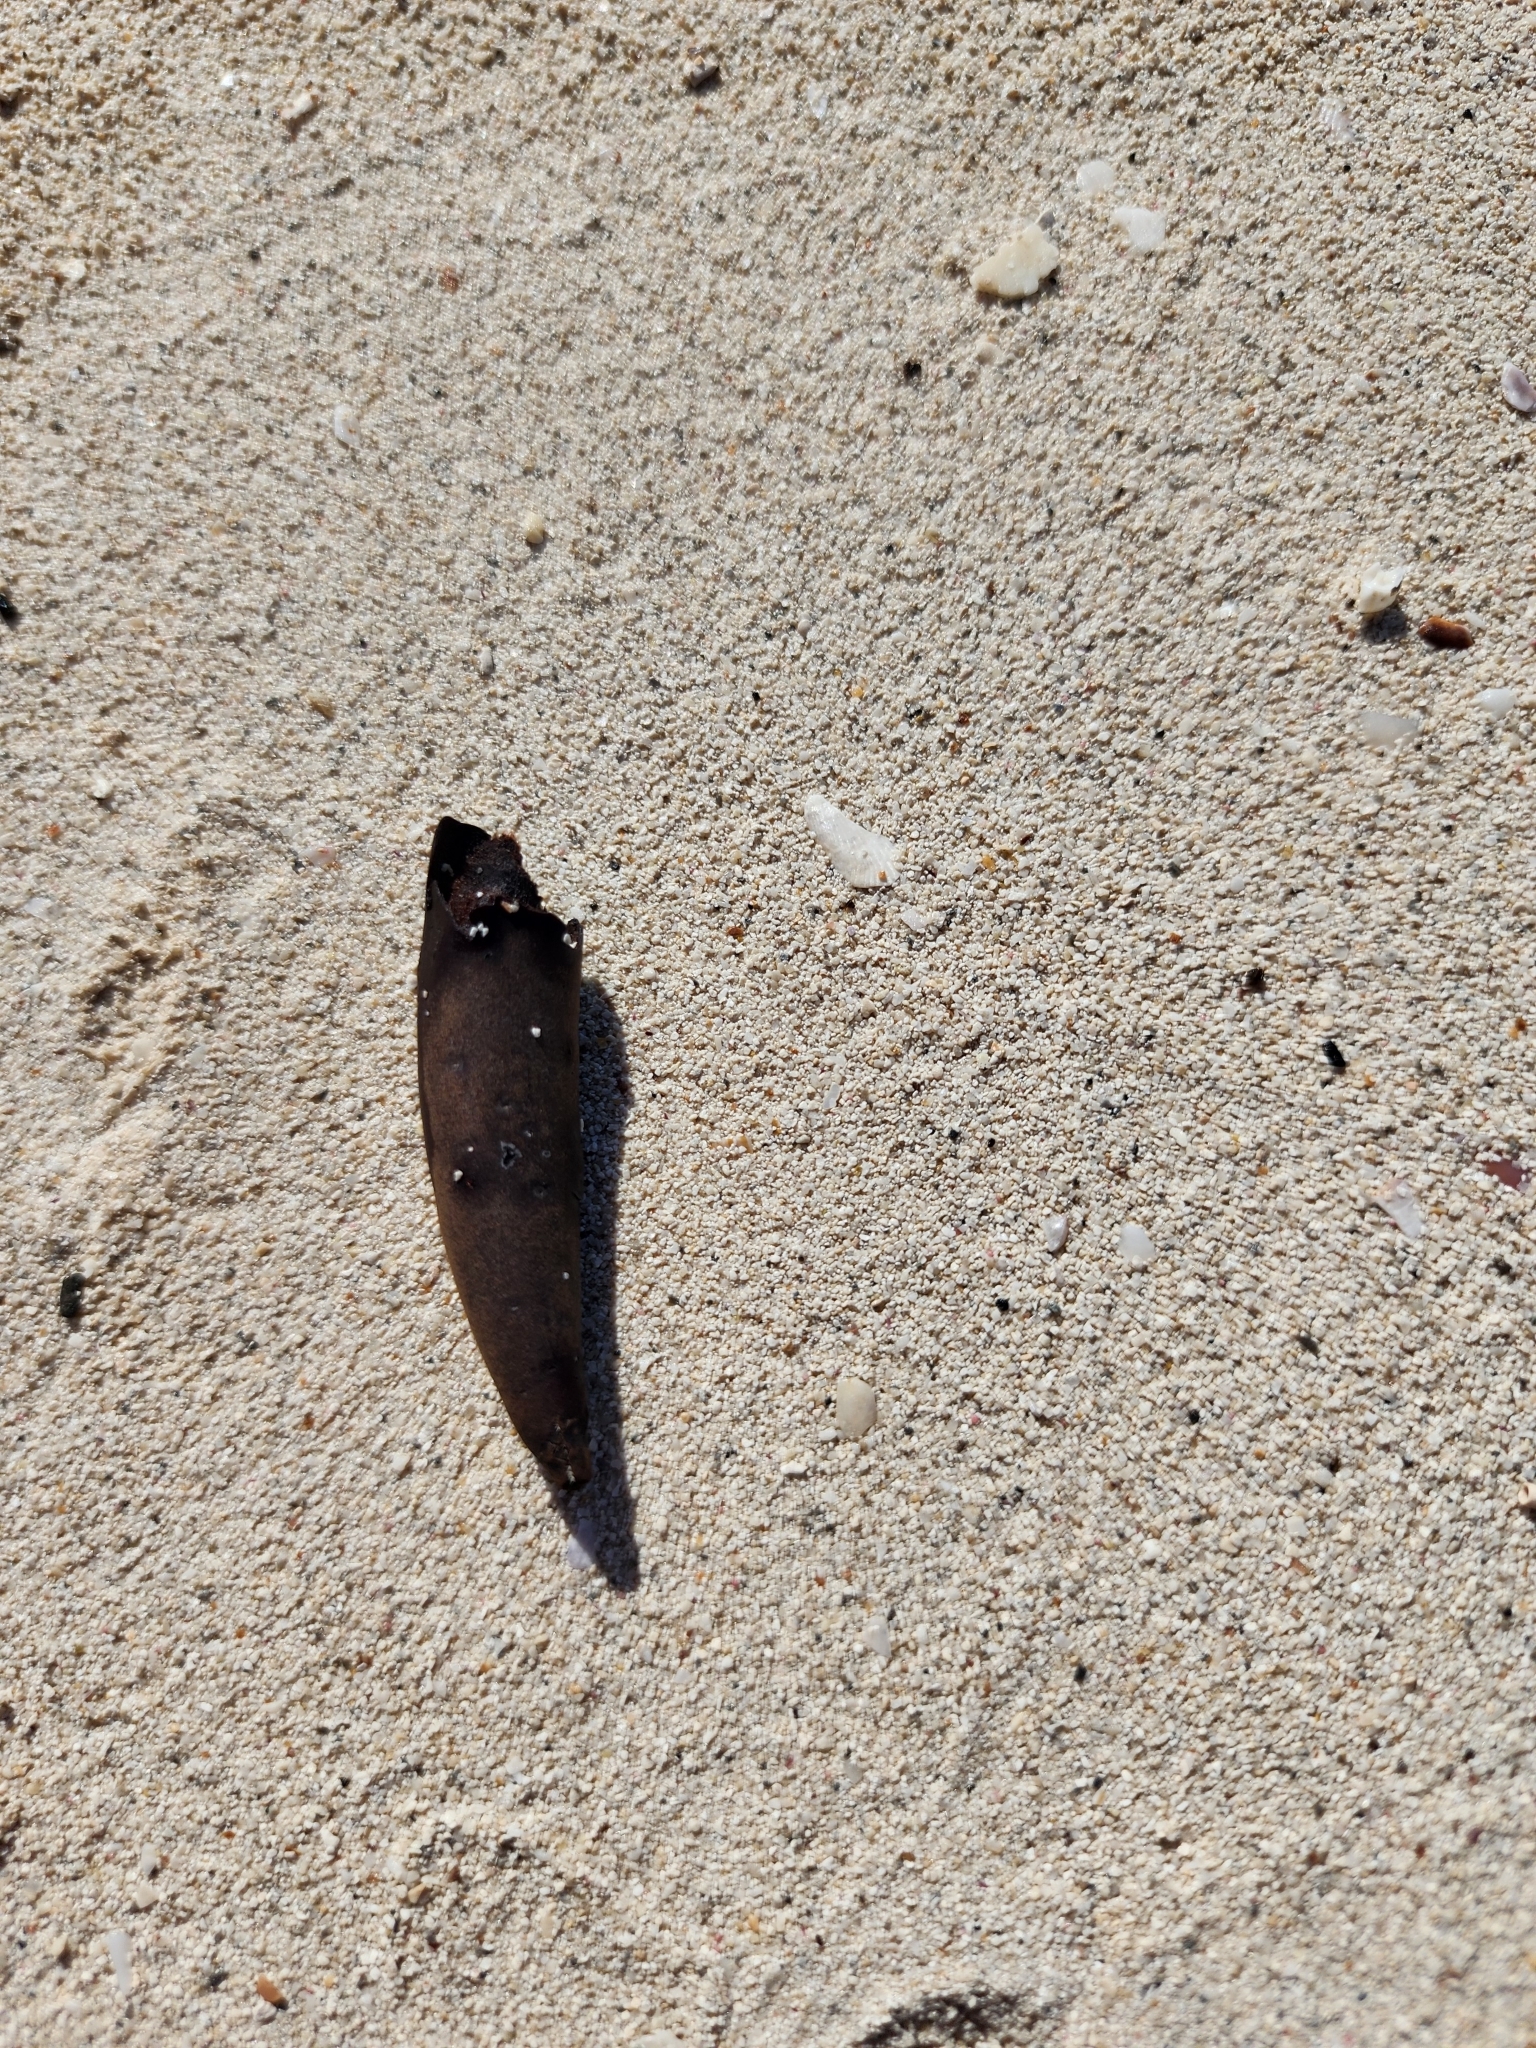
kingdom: Plantae
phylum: Tracheophyta
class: Magnoliopsida
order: Malpighiales
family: Rhizophoraceae
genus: Rhizophora
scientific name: Rhizophora mangle
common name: Red mangrove
